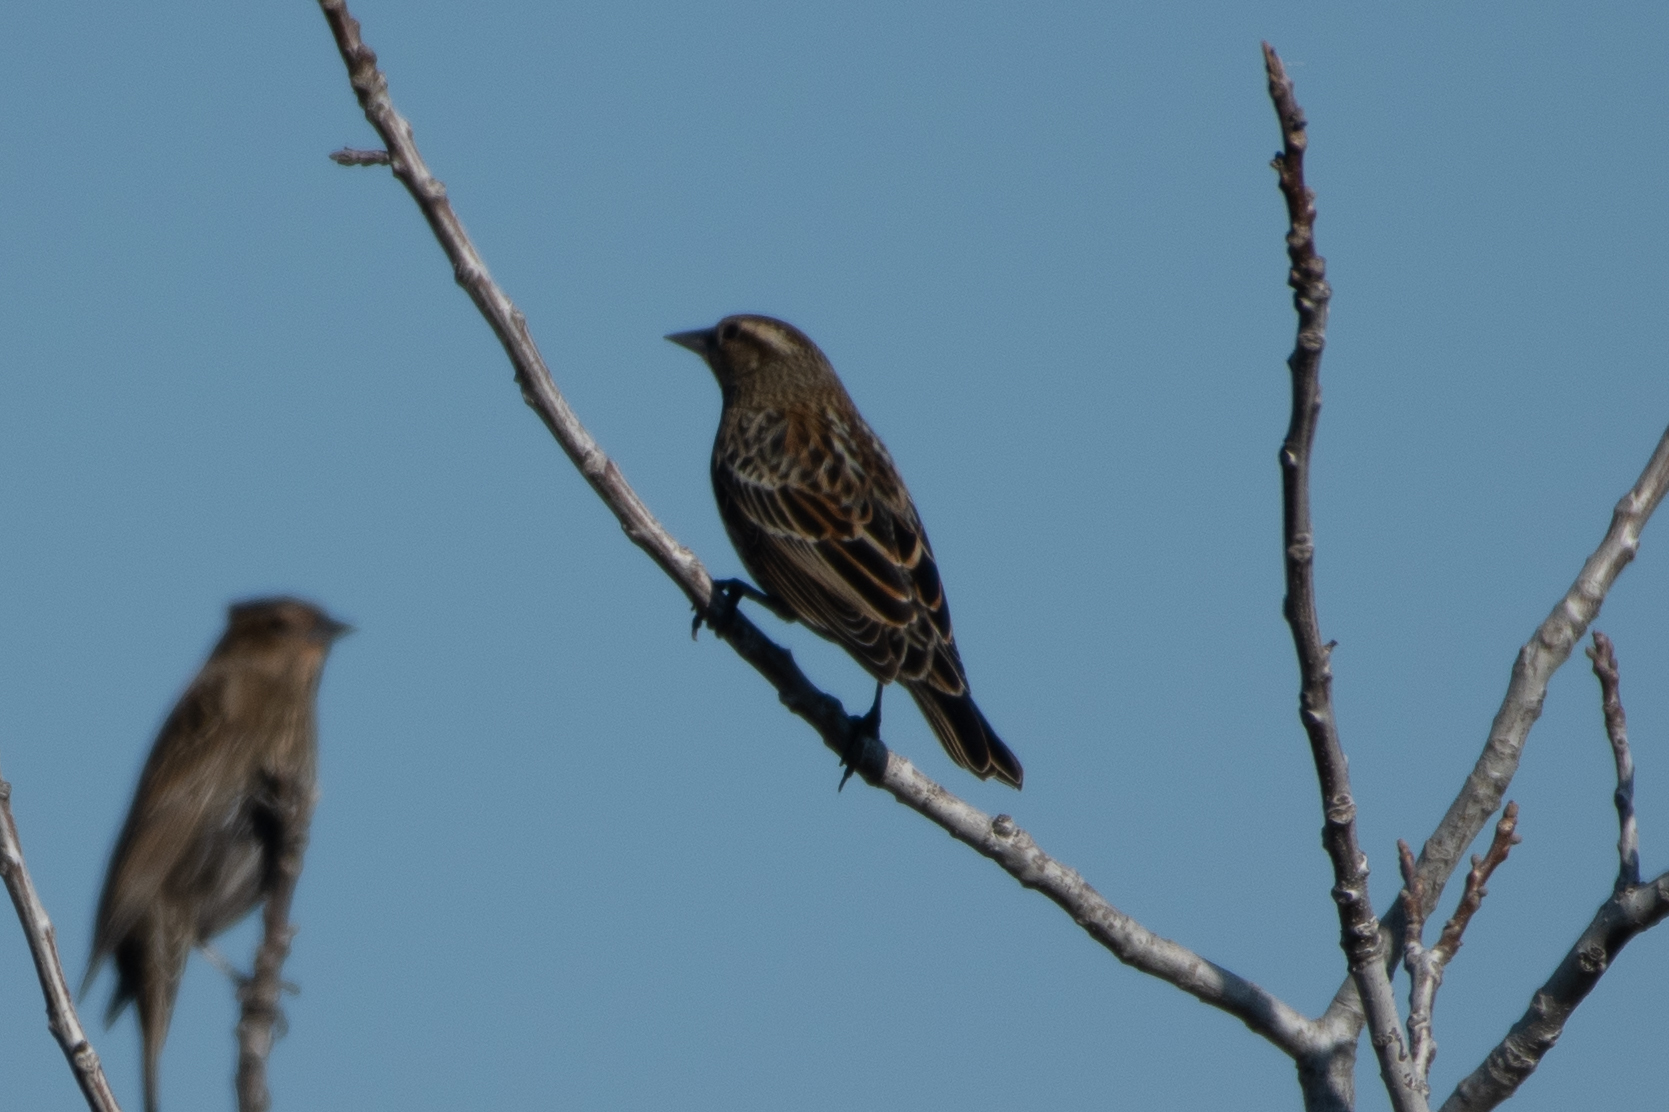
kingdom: Animalia
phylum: Chordata
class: Aves
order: Passeriformes
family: Icteridae
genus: Agelaius
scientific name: Agelaius phoeniceus
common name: Red-winged blackbird
